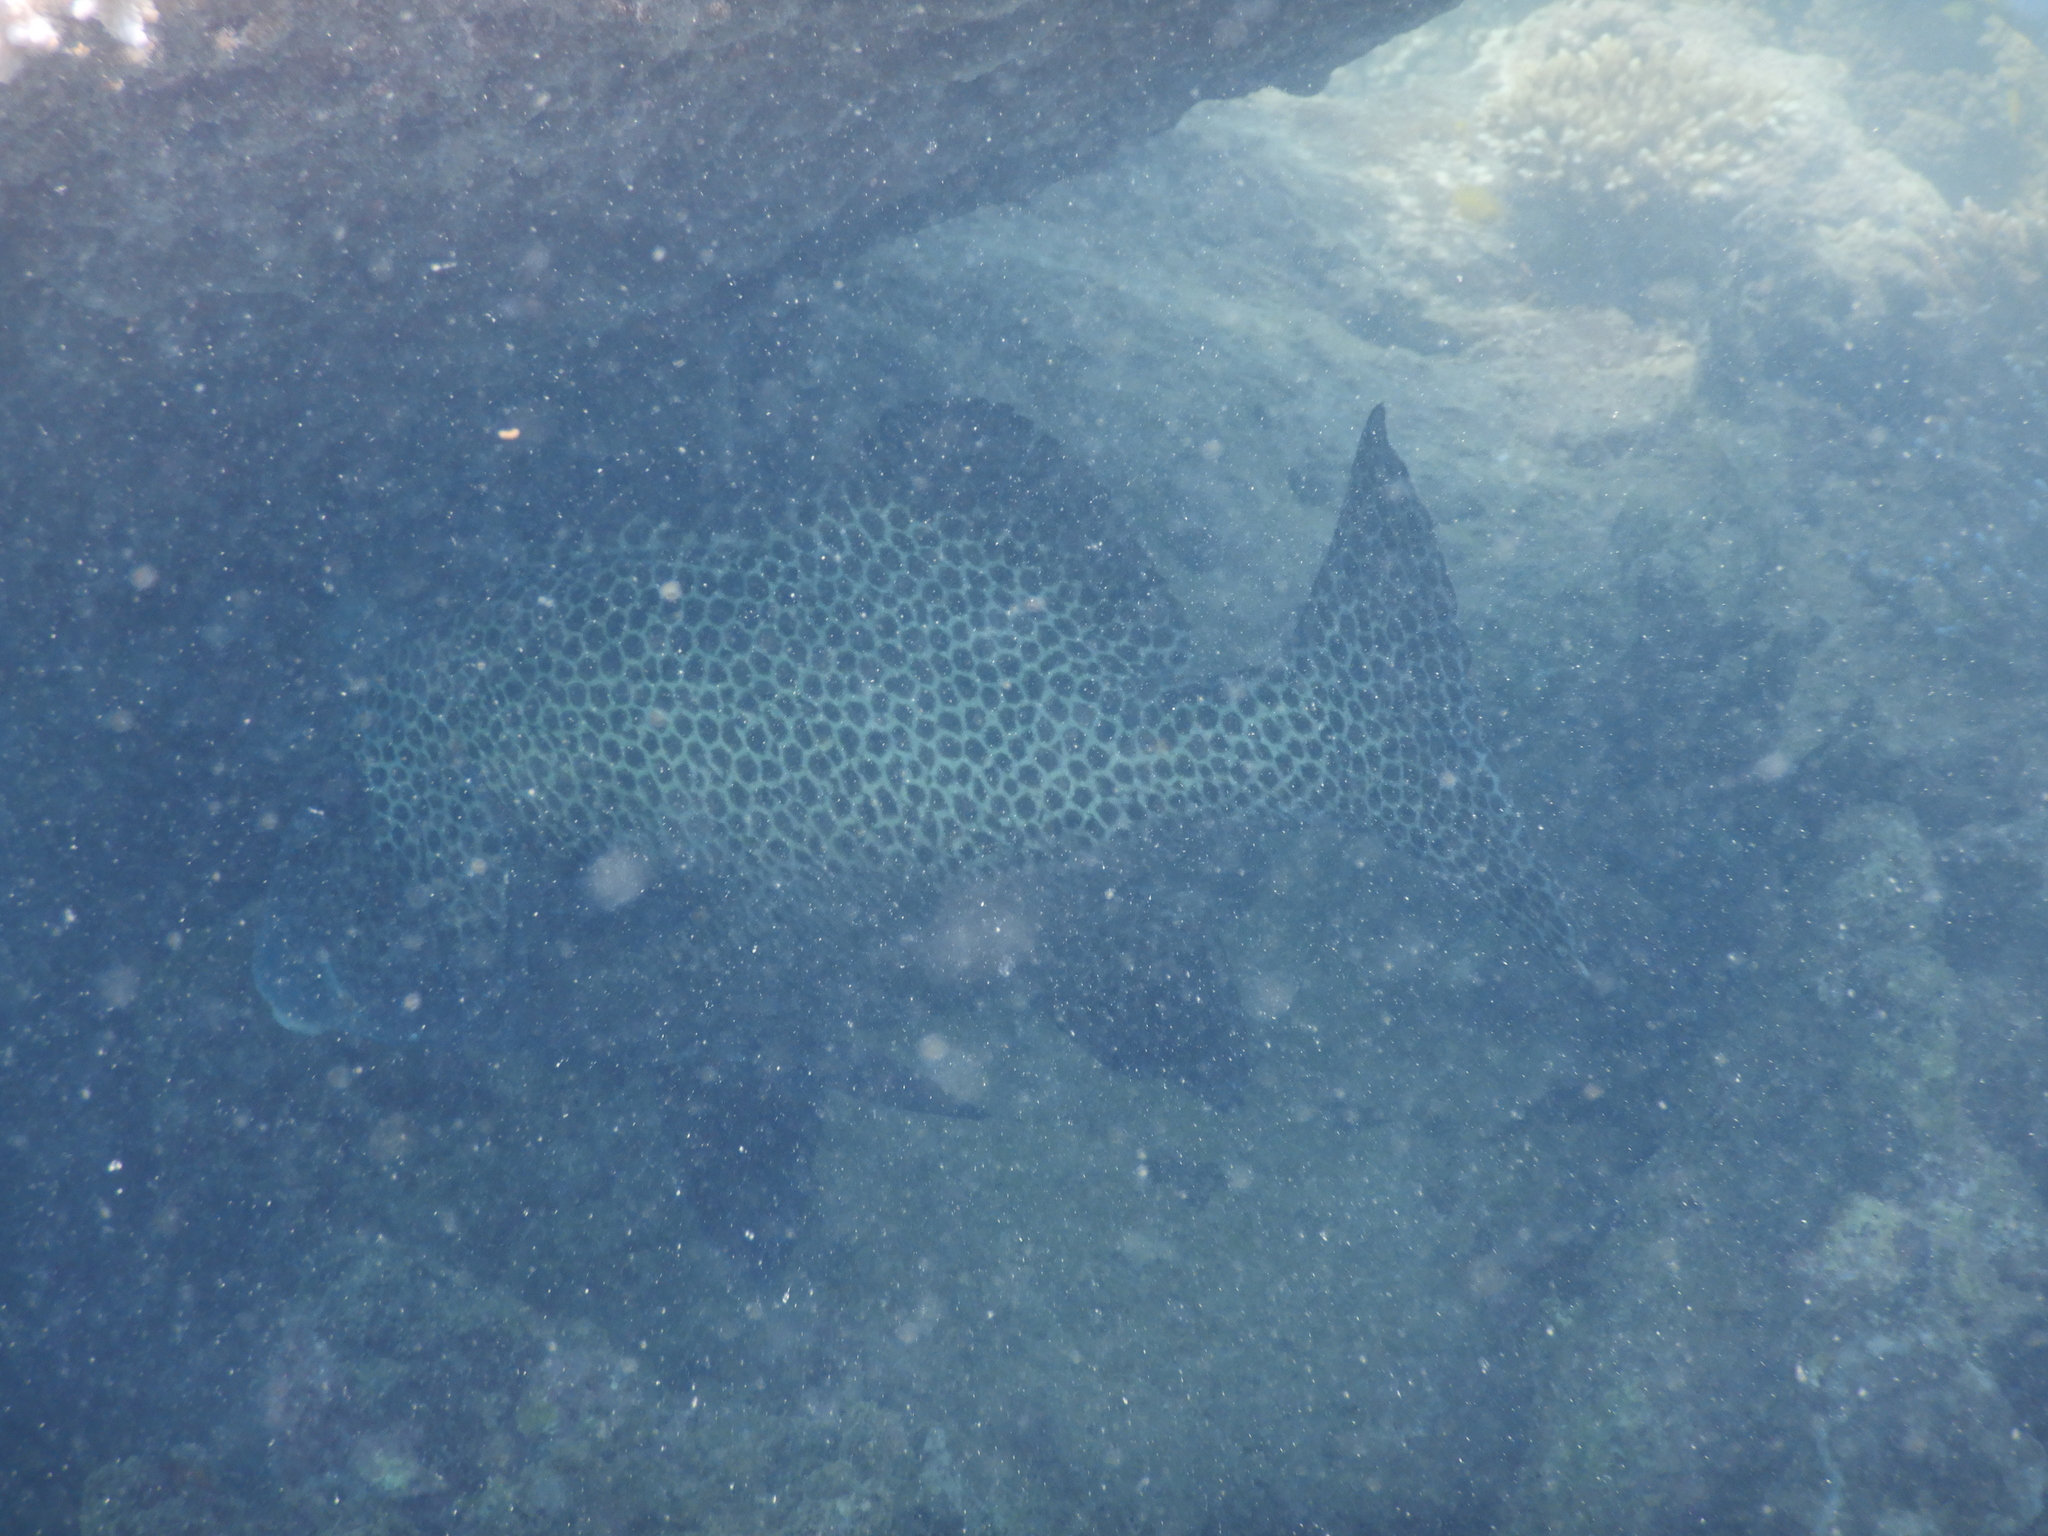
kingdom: Animalia
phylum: Chordata
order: Perciformes
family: Haemulidae
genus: Plectorhinchus
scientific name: Plectorhinchus chaetodonoides
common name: Harlequin sweetlips
